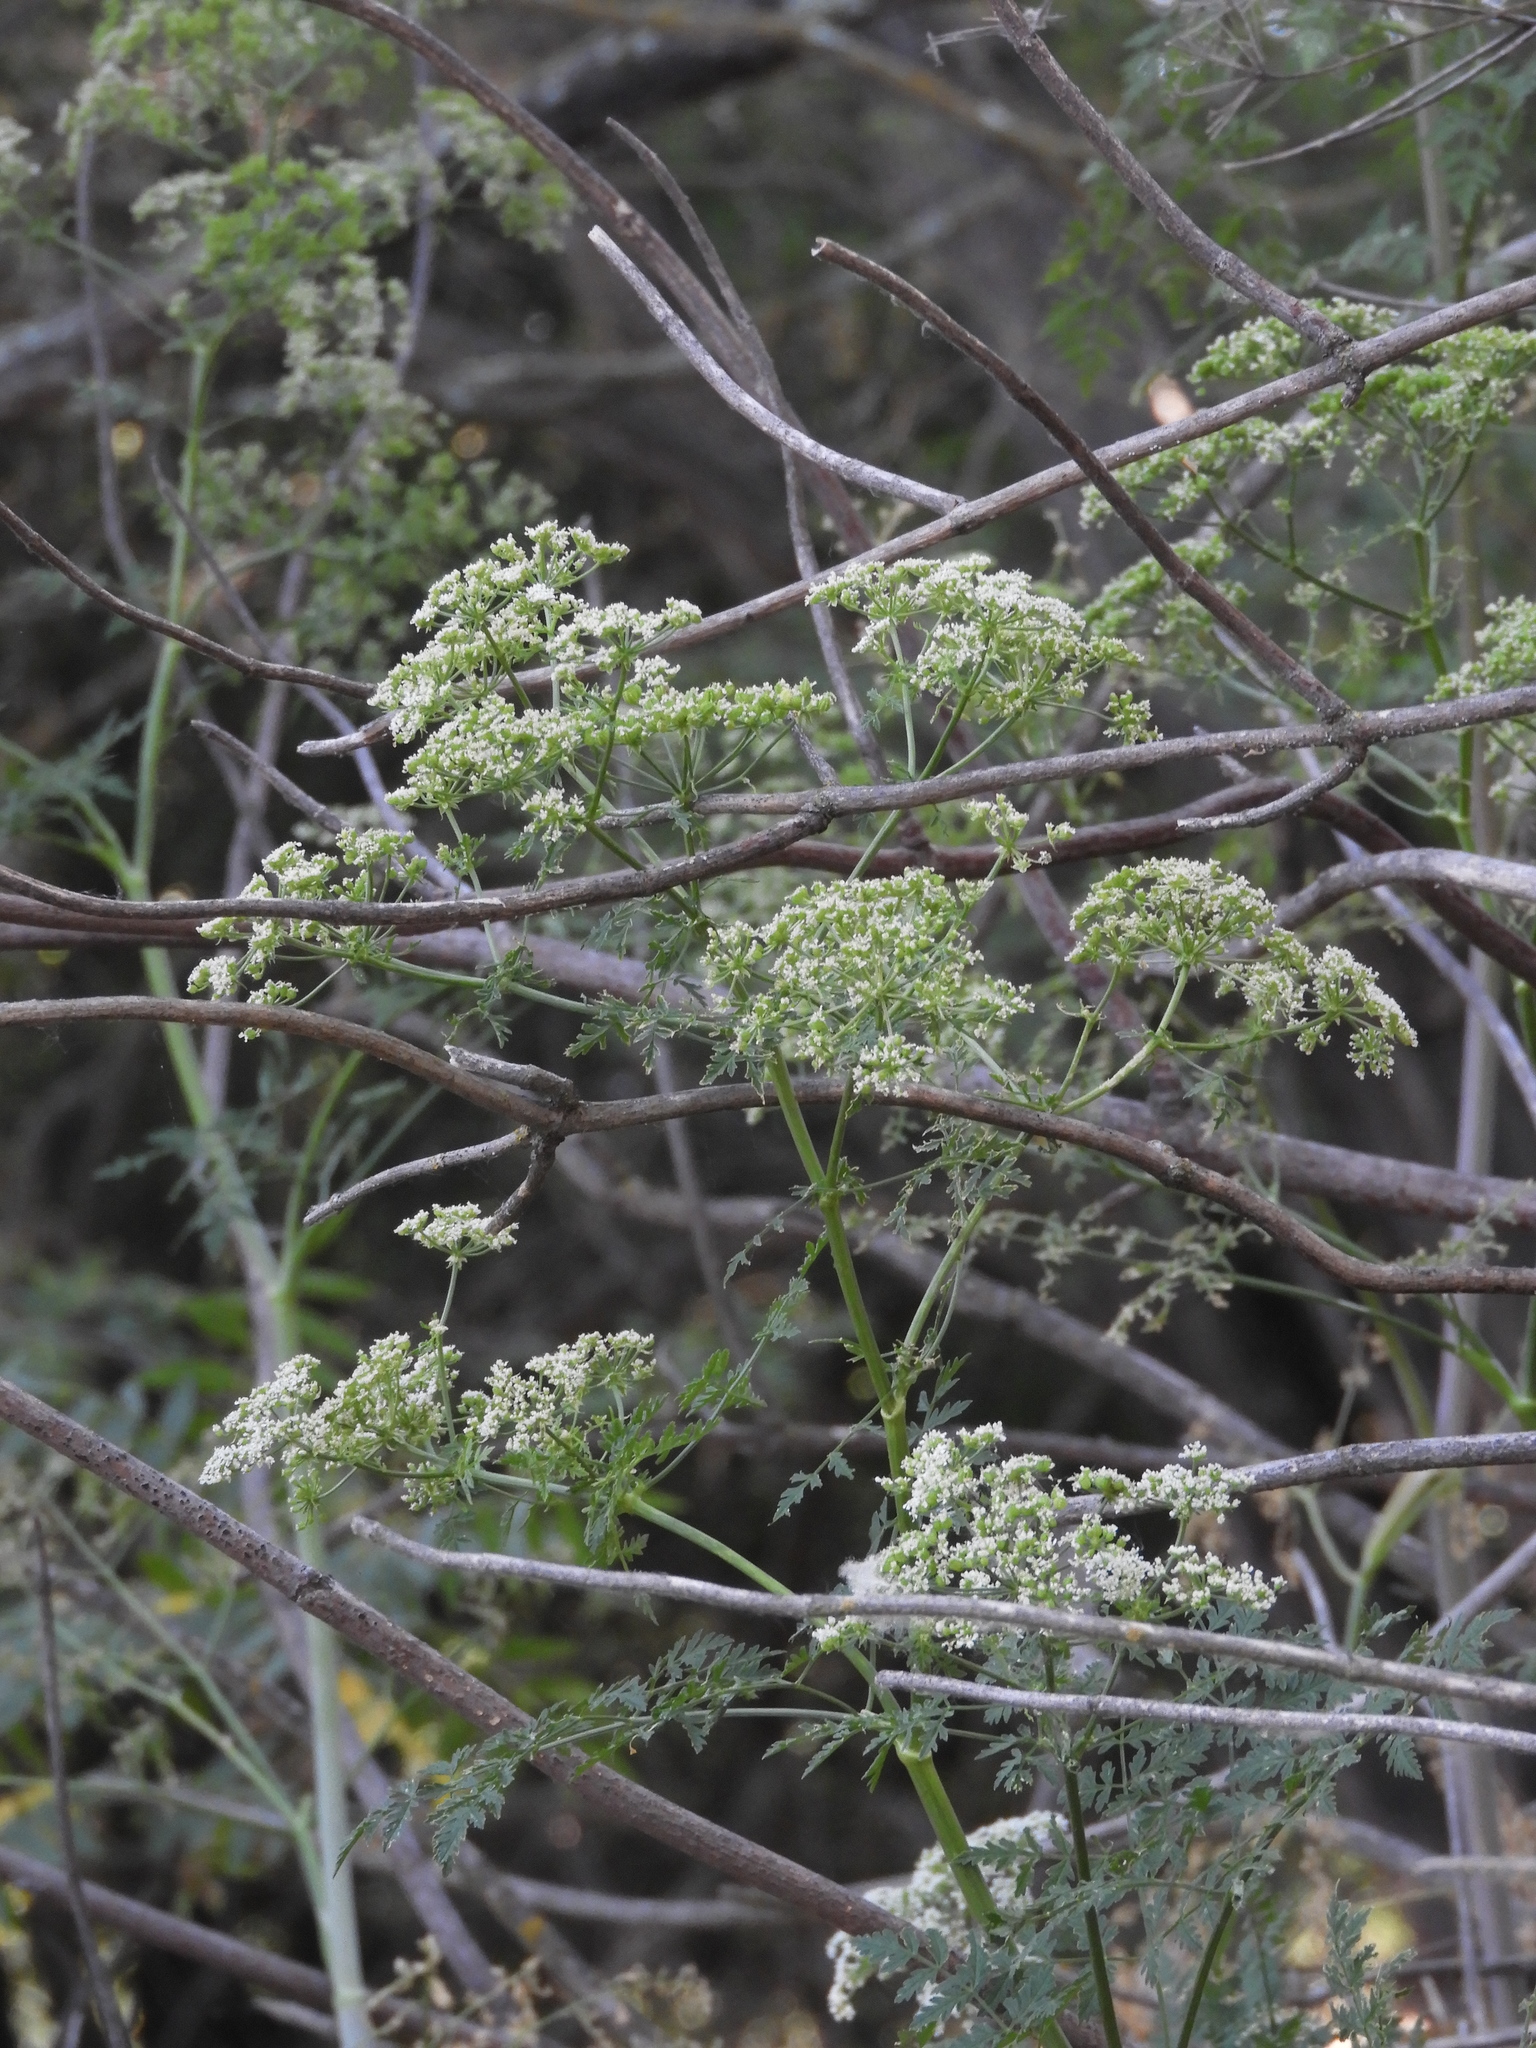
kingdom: Plantae
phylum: Tracheophyta
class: Magnoliopsida
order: Apiales
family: Apiaceae
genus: Conium
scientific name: Conium maculatum
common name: Hemlock
